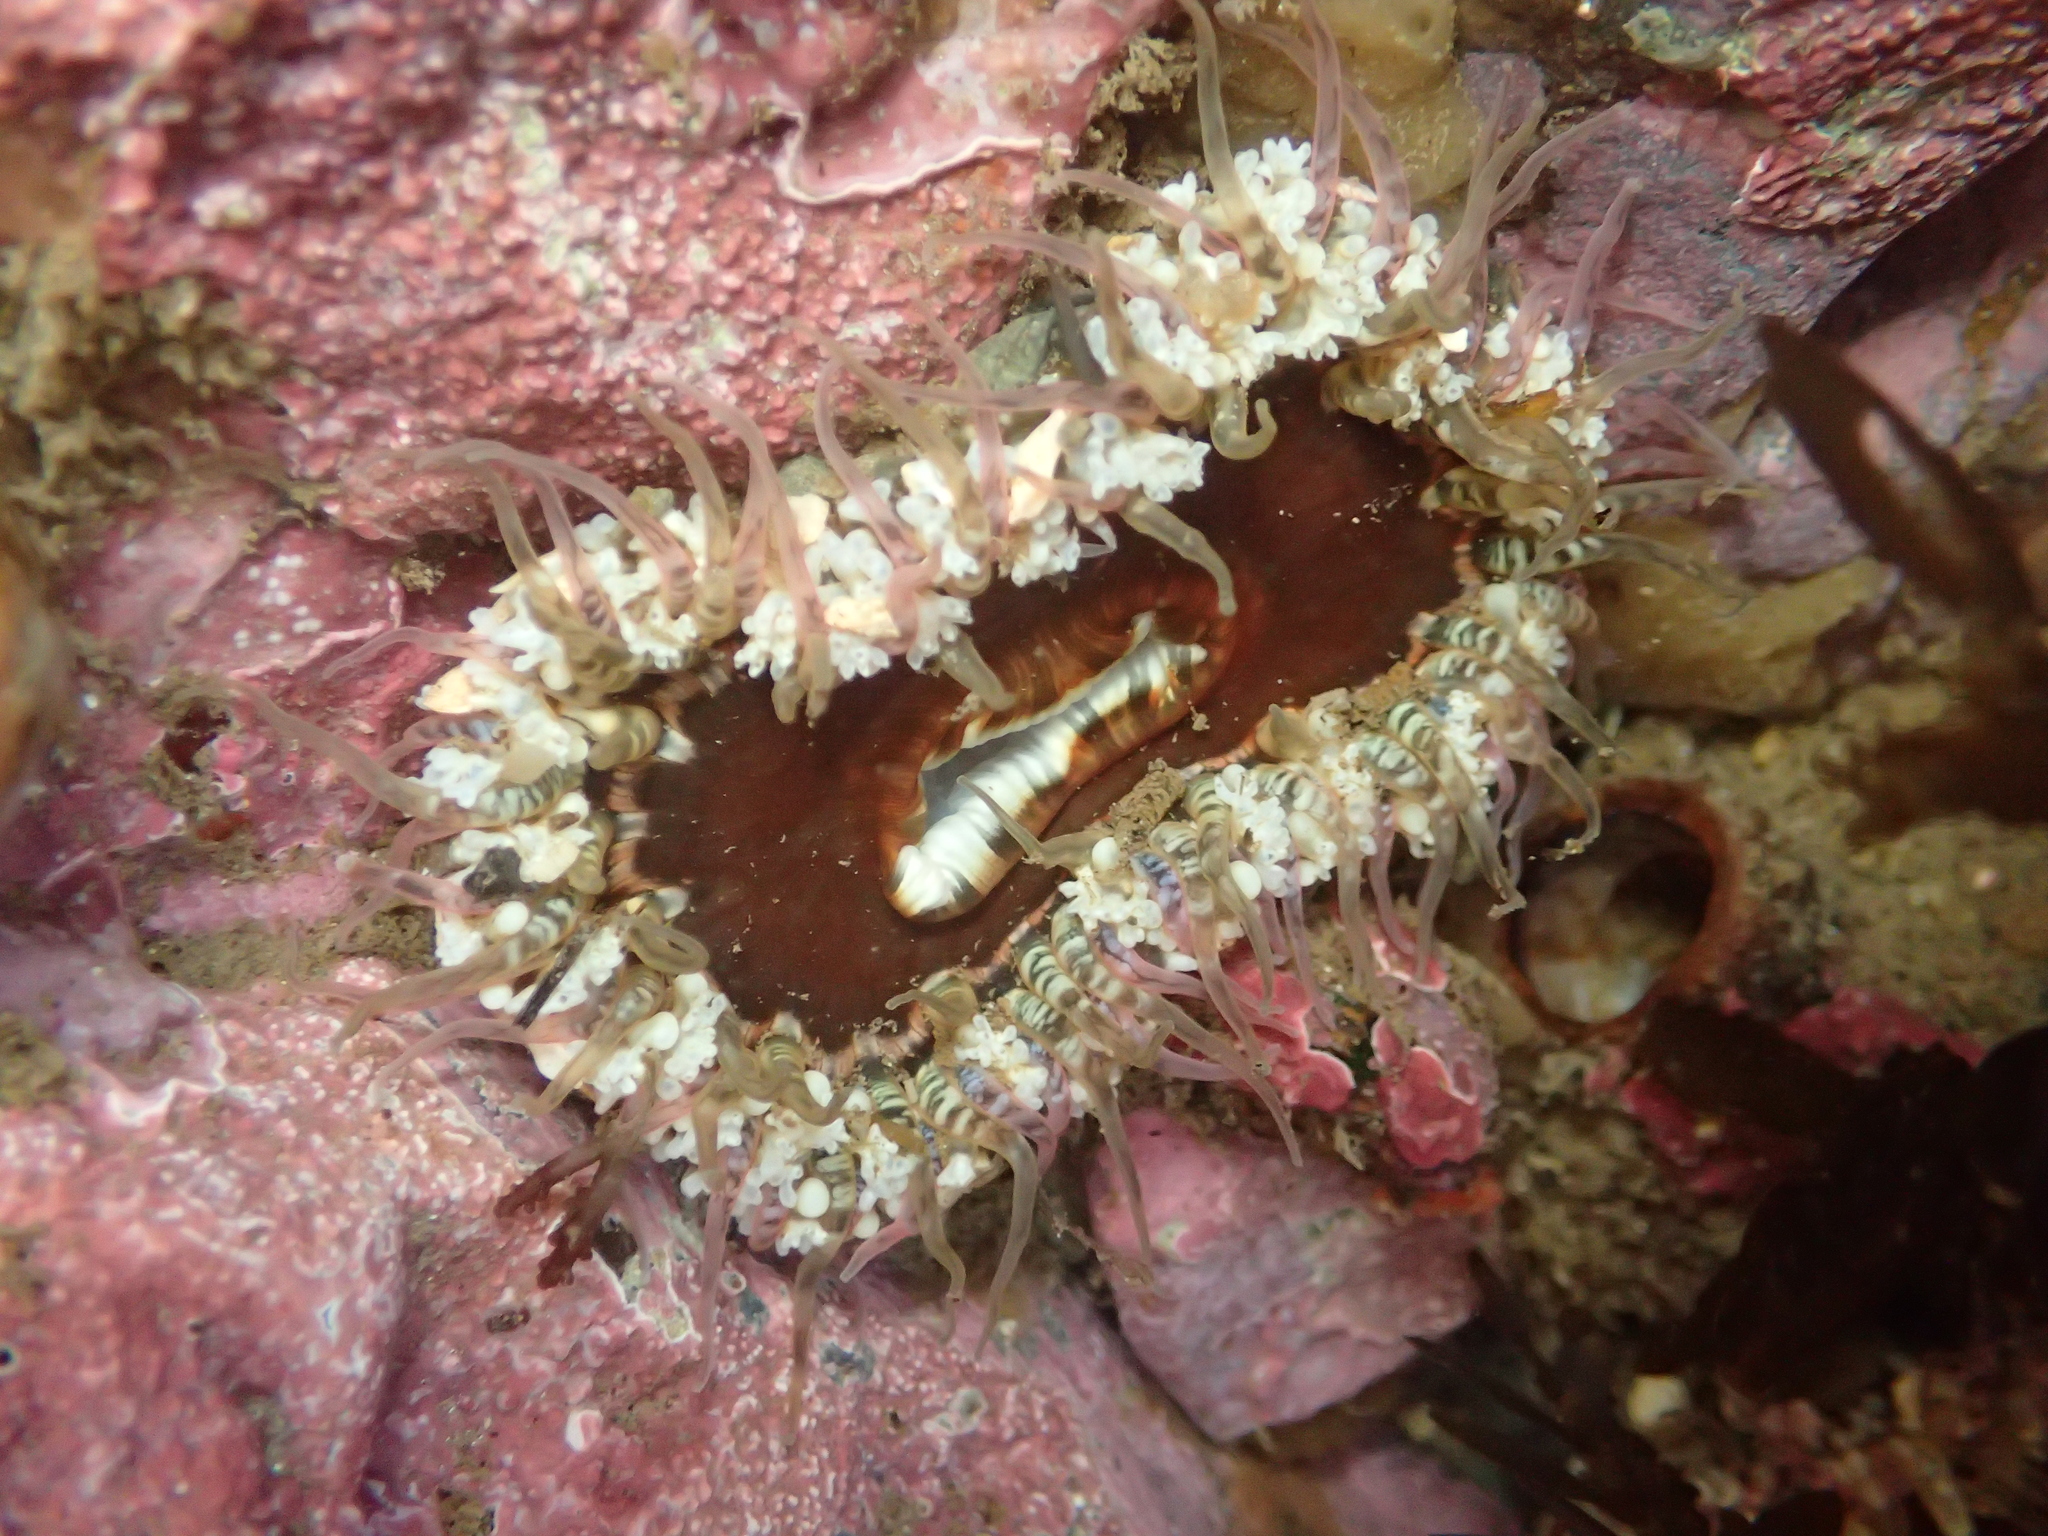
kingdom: Animalia
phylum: Cnidaria
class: Anthozoa
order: Actiniaria
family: Actiniidae
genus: Oulactis
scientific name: Oulactis muscosa
